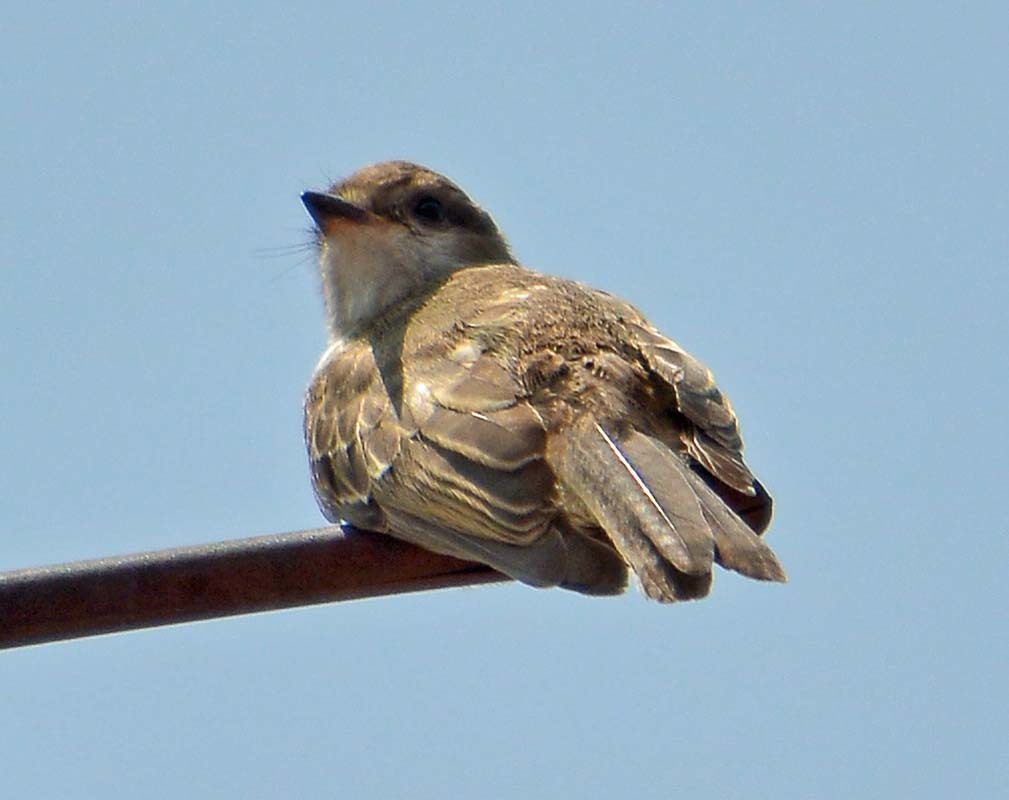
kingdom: Animalia
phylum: Chordata
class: Aves
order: Passeriformes
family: Tyrannidae
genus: Pyrocephalus
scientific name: Pyrocephalus rubinus
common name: Vermilion flycatcher
